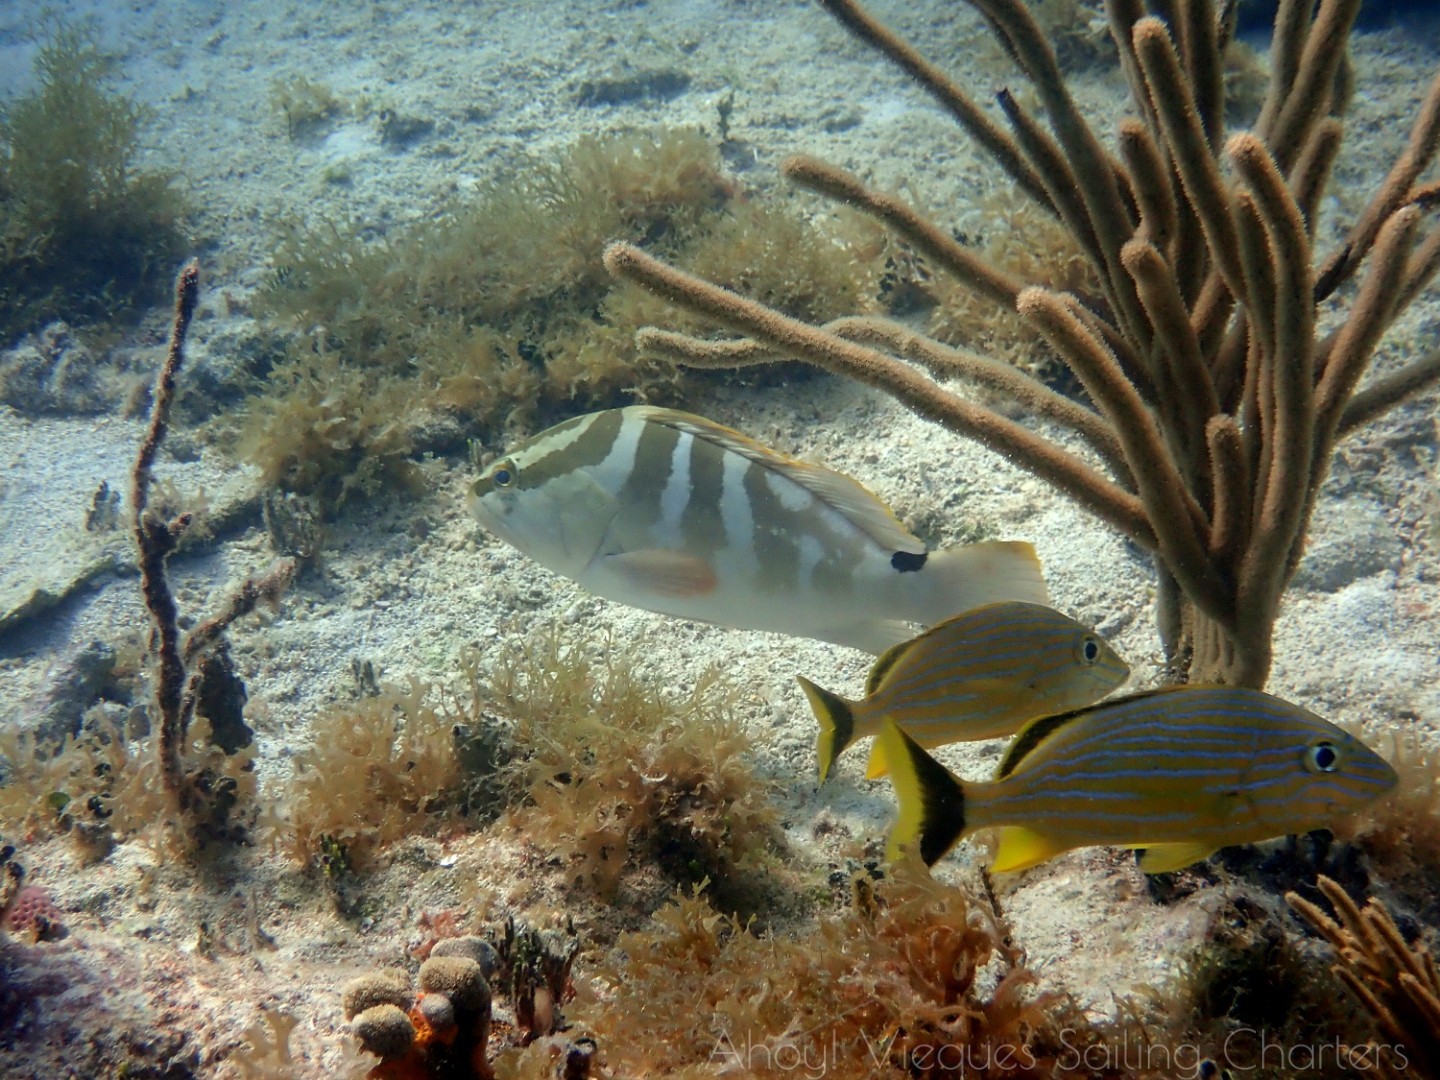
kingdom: Animalia
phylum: Chordata
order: Perciformes
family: Serranidae
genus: Epinephelus
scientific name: Epinephelus striatus
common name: Nassau grouper
